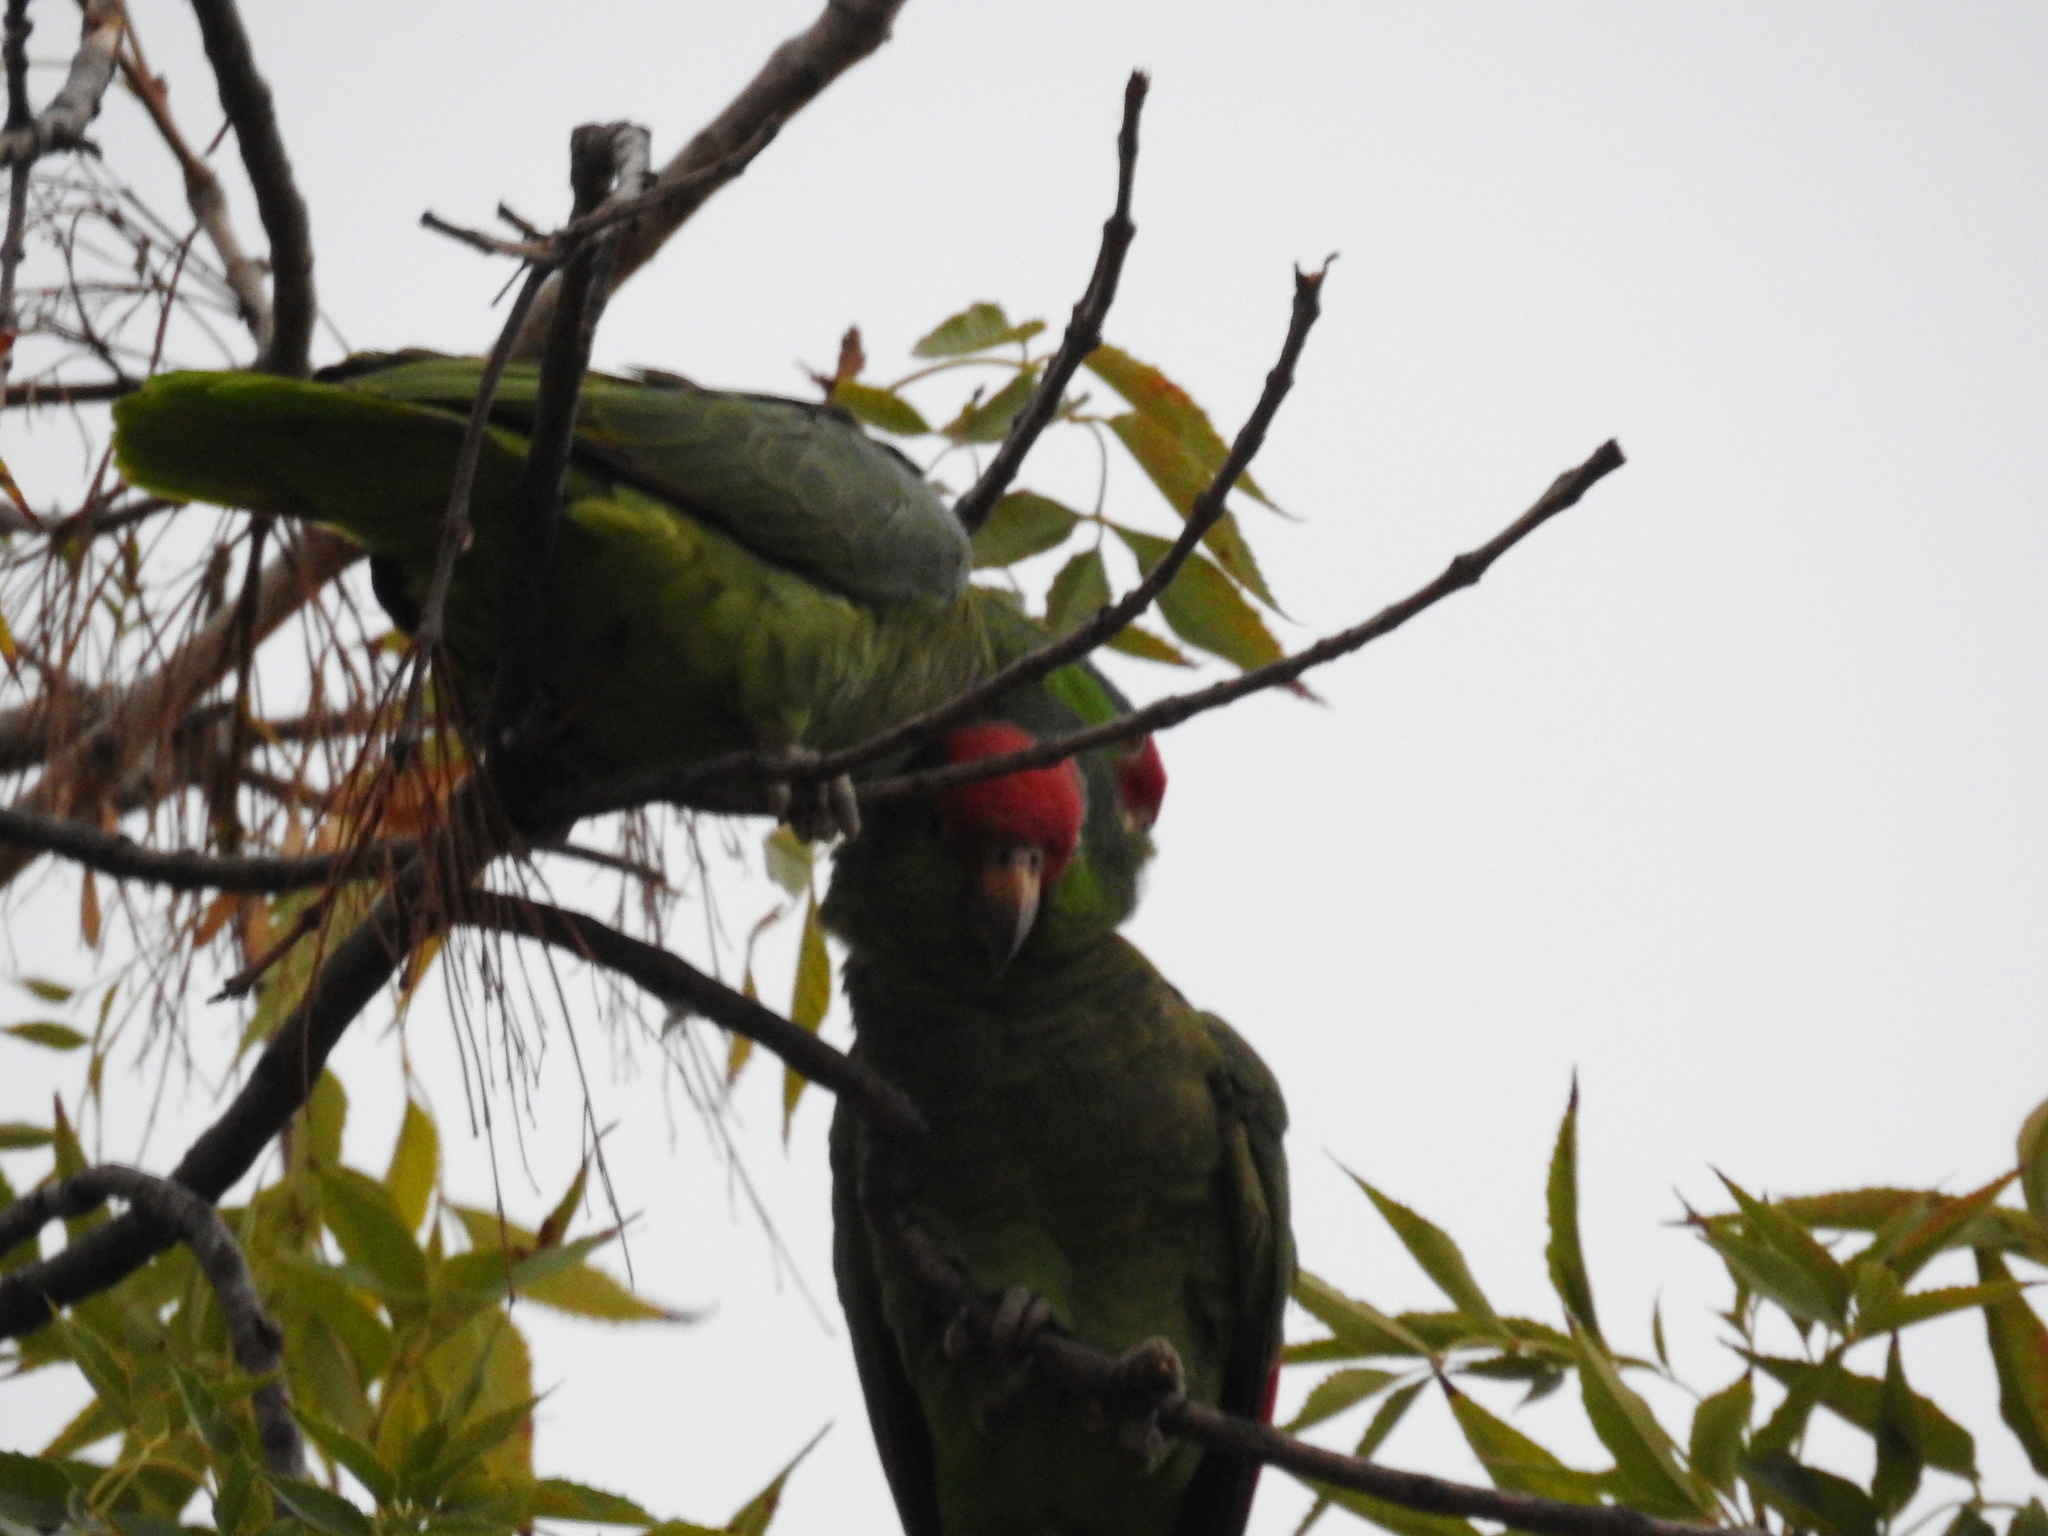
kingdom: Animalia
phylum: Chordata
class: Aves
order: Psittaciformes
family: Psittacidae
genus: Amazona
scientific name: Amazona viridigenalis
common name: Red-crowned amazon
